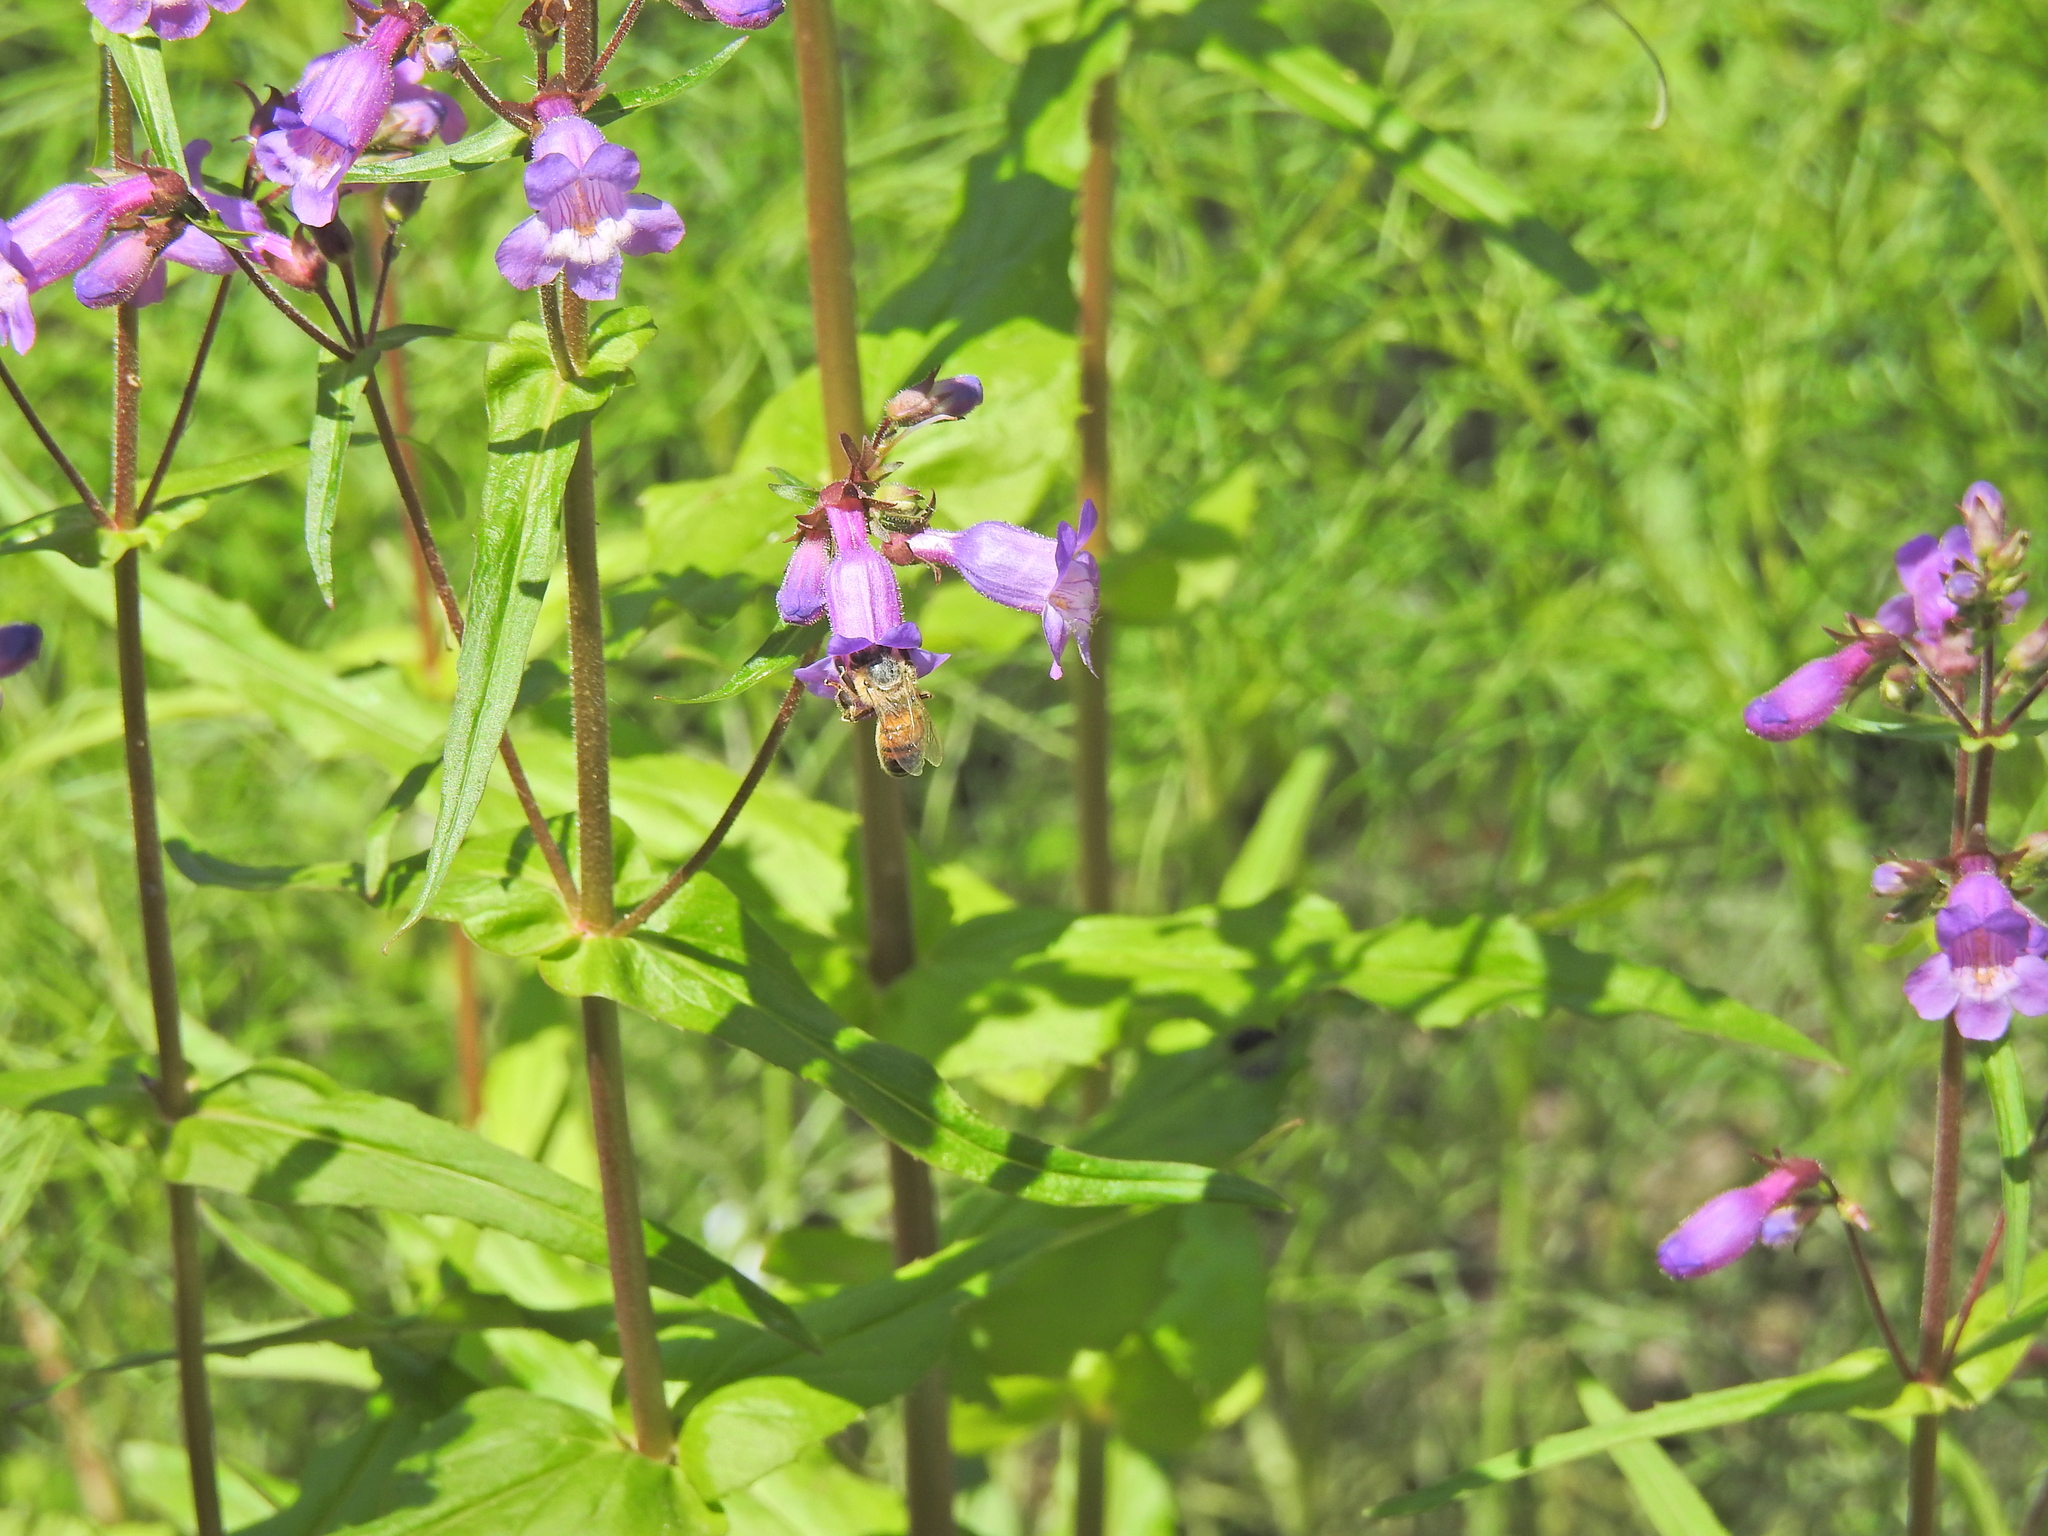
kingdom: Animalia
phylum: Arthropoda
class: Insecta
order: Hymenoptera
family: Apidae
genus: Apis
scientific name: Apis mellifera
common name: Honey bee
